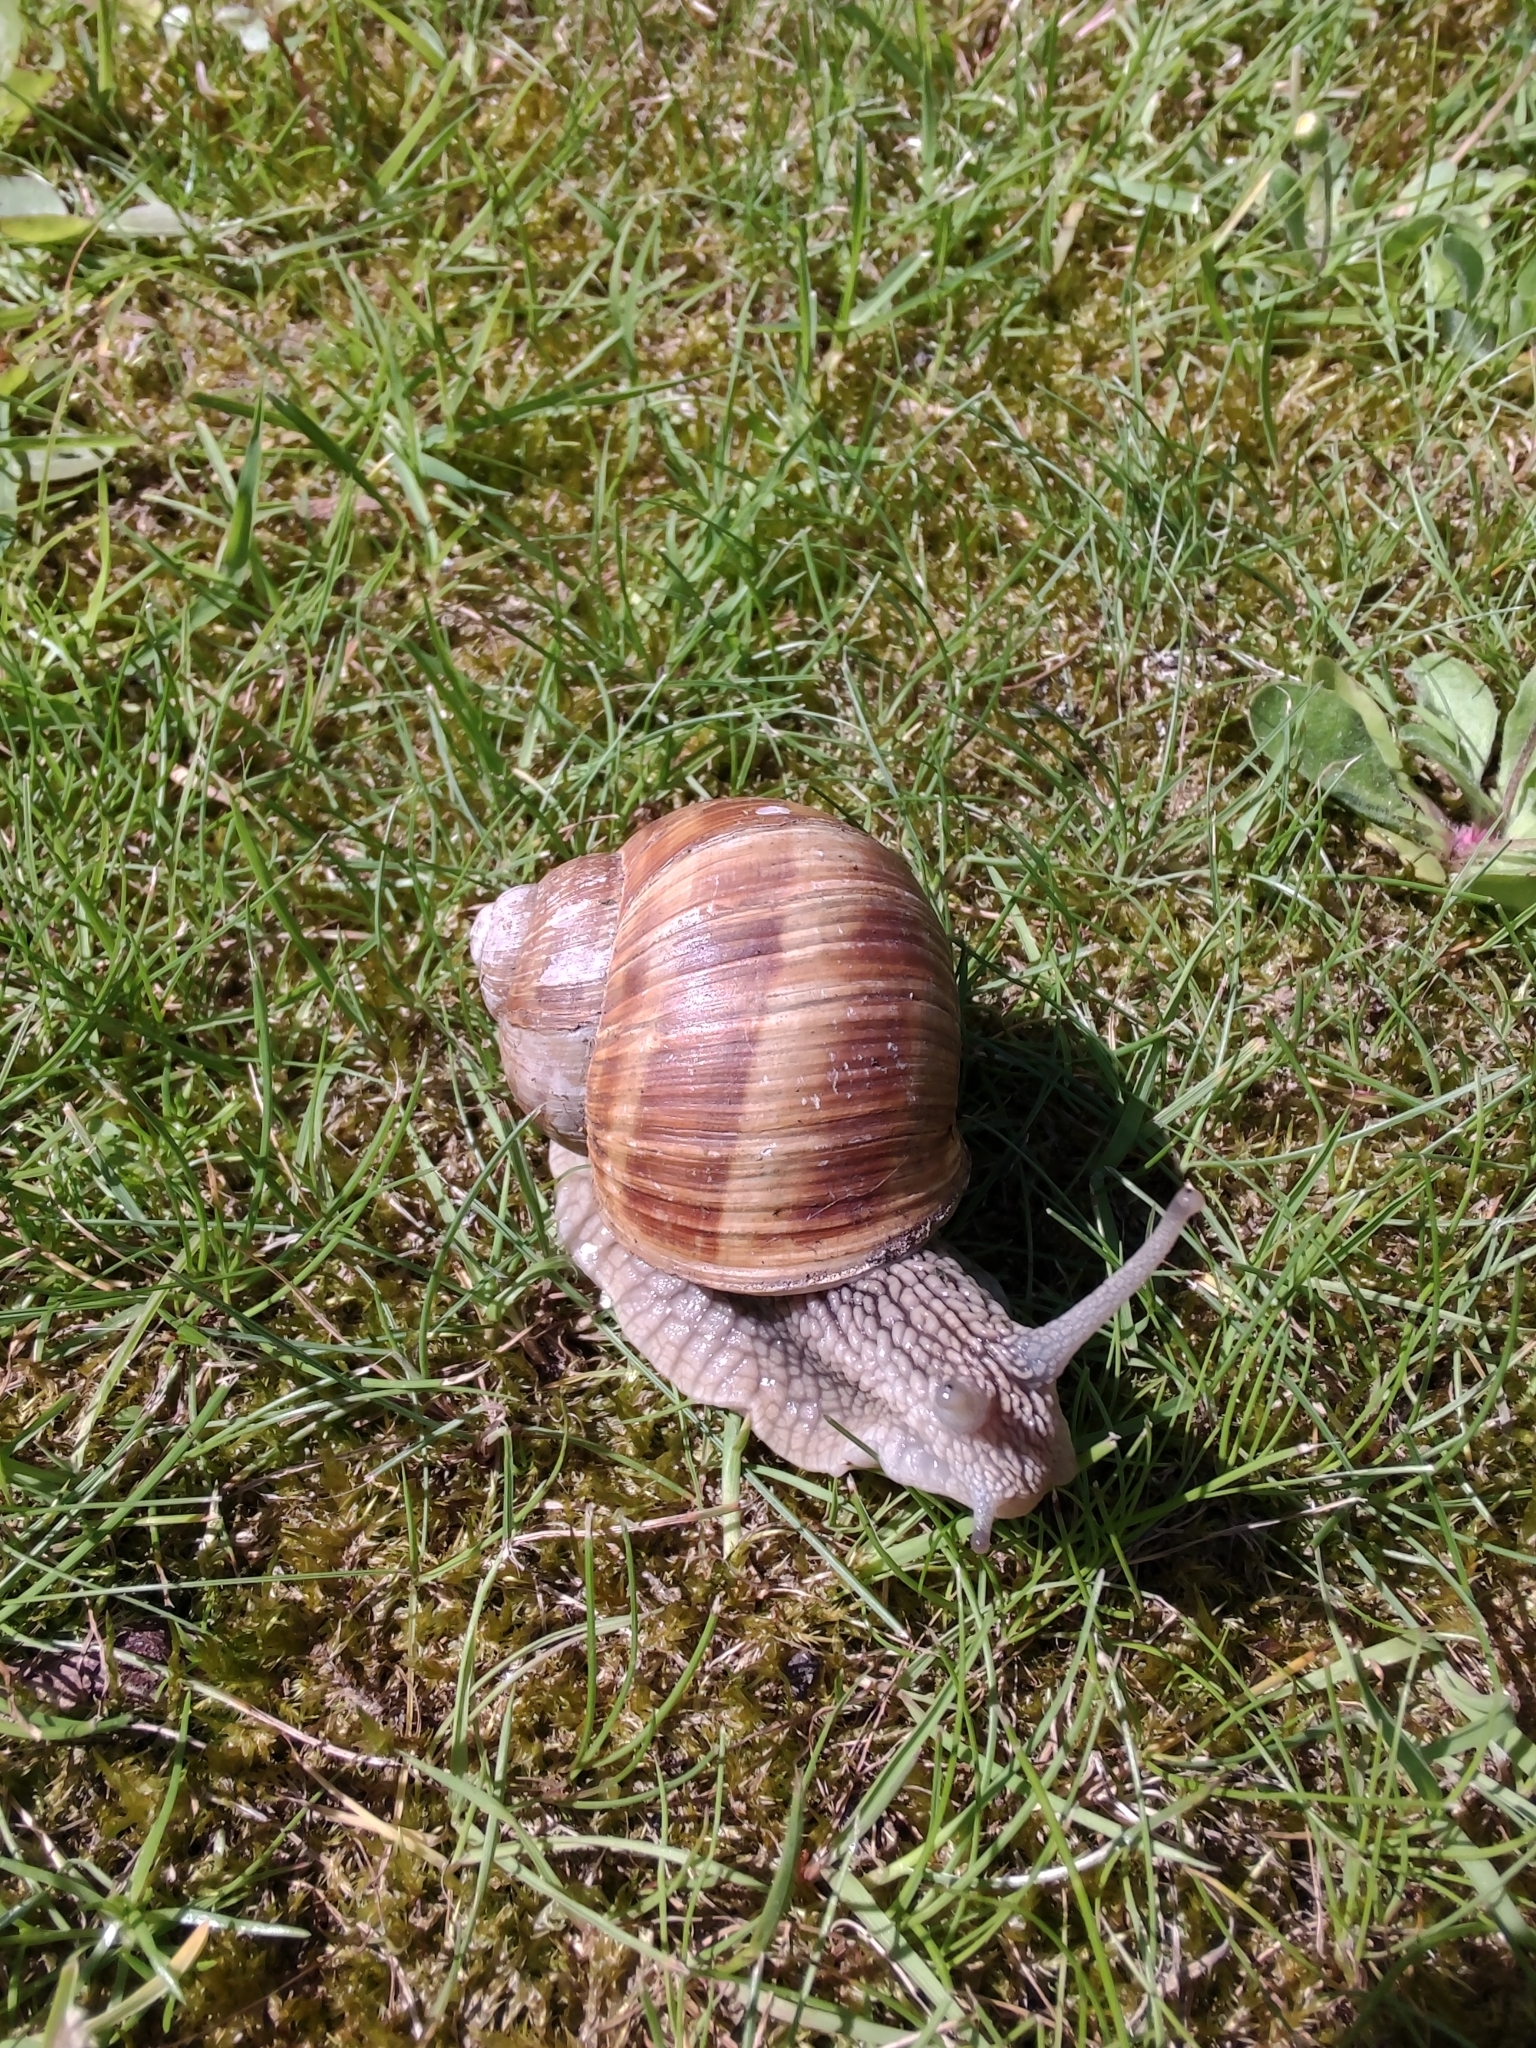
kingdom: Animalia
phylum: Mollusca
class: Gastropoda
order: Stylommatophora
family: Helicidae
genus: Helix
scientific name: Helix pomatia
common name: Roman snail
